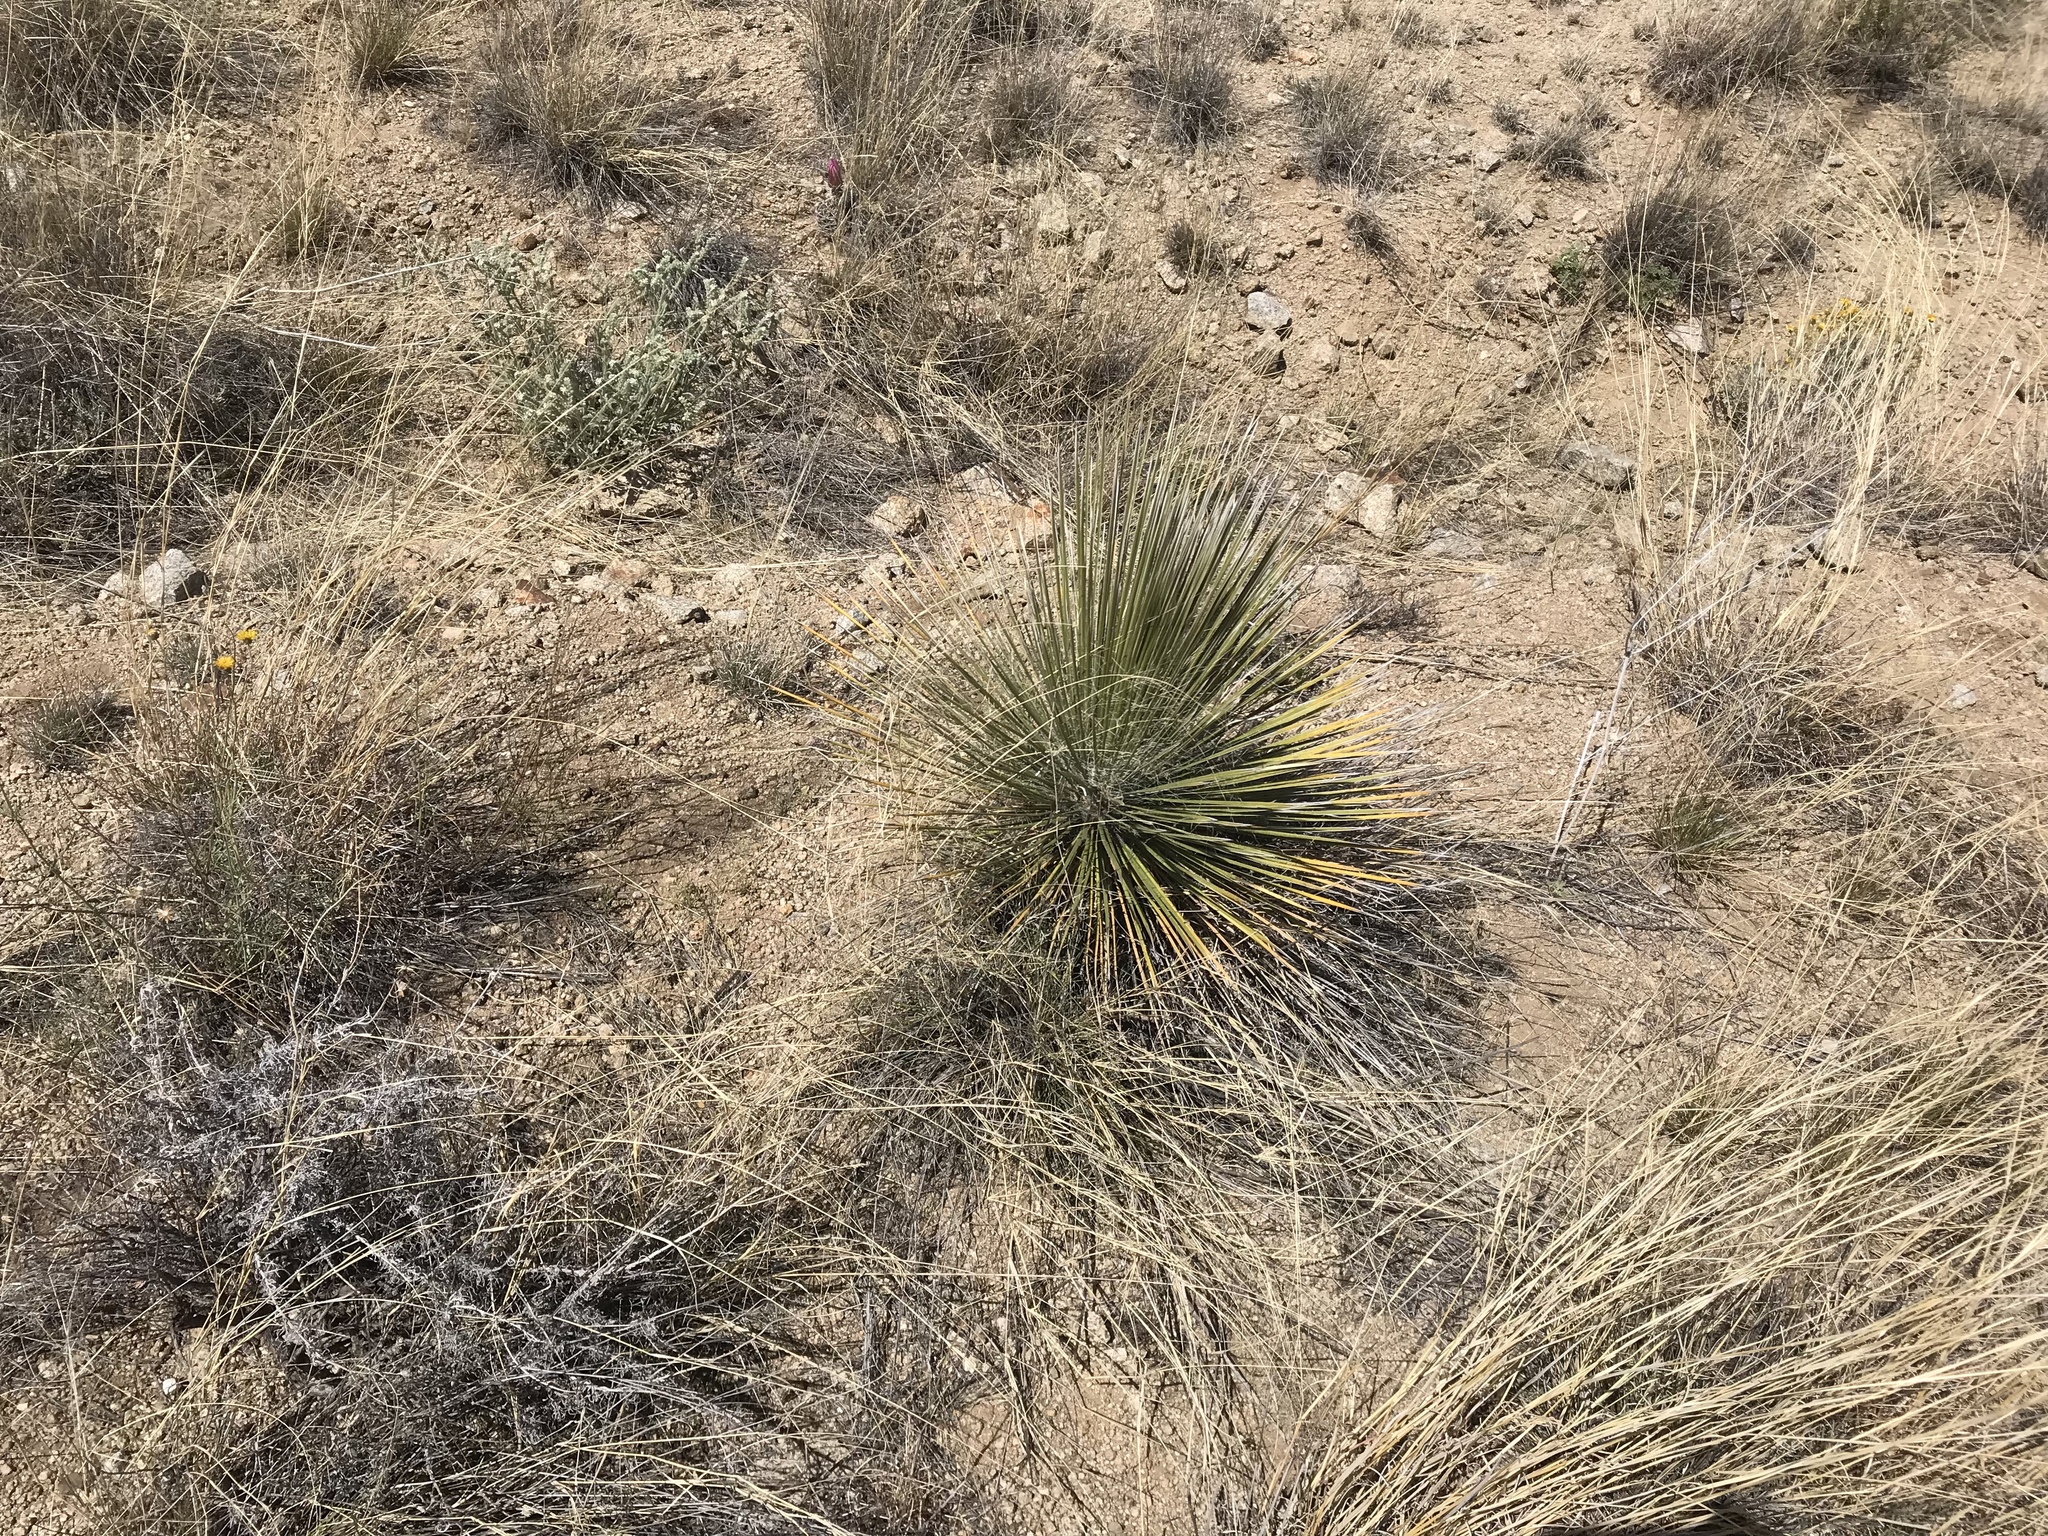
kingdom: Plantae
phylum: Tracheophyta
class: Liliopsida
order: Asparagales
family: Asparagaceae
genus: Yucca
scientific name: Yucca elata
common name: Palmella
